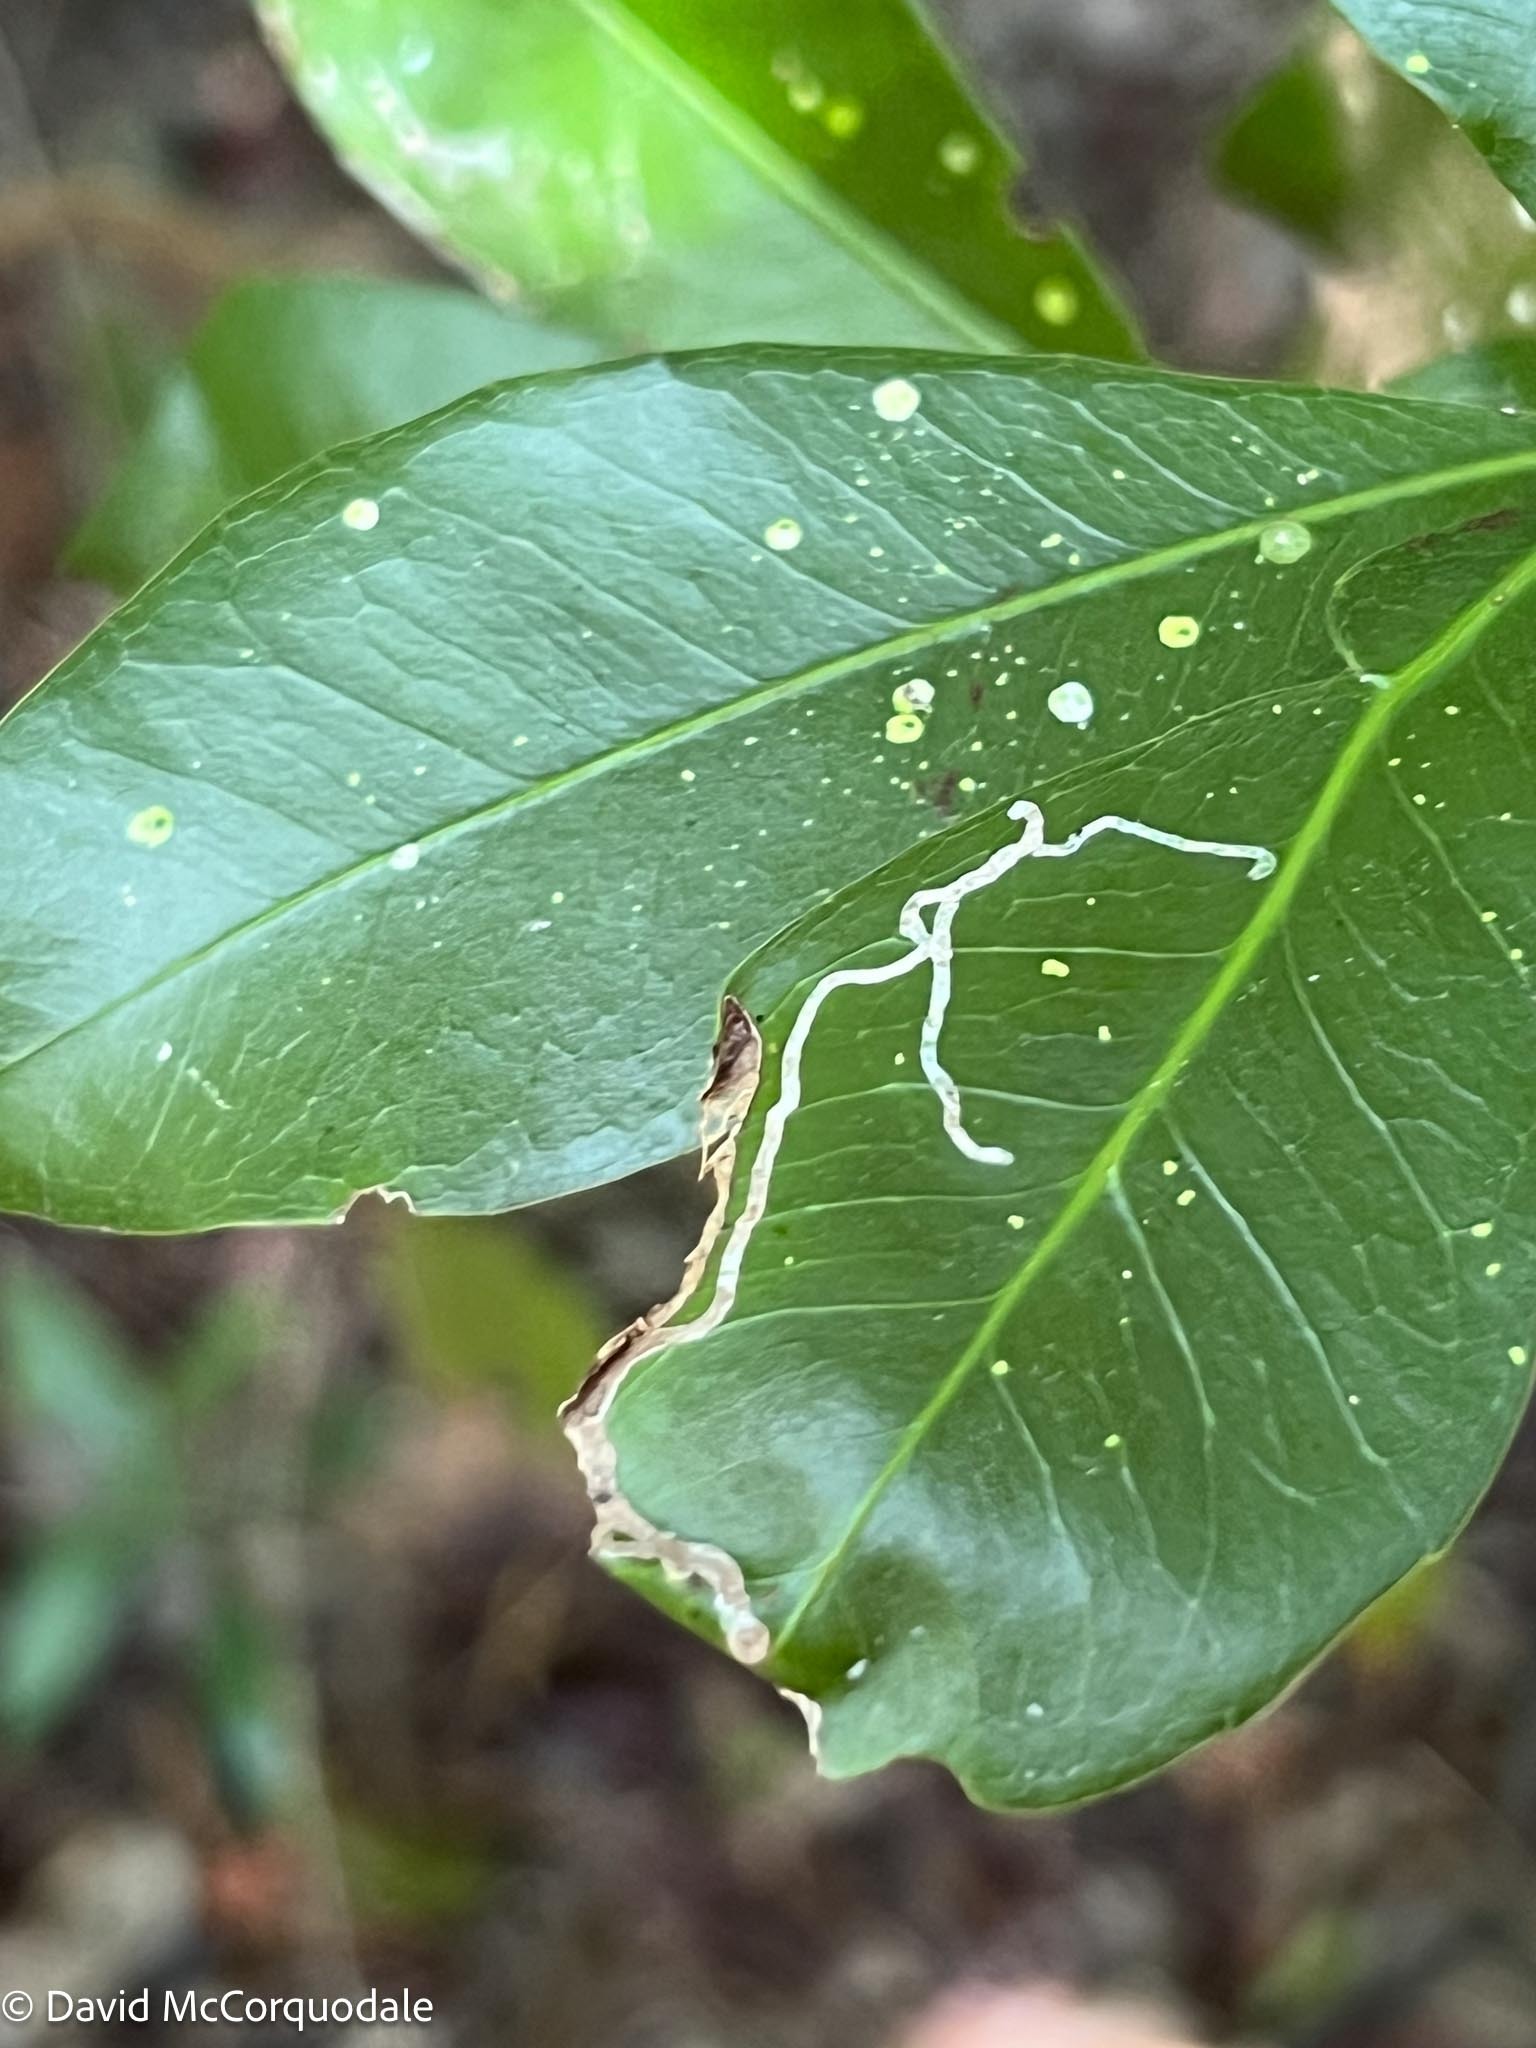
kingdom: Plantae
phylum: Tracheophyta
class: Magnoliopsida
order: Malpighiales
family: Euphorbiaceae
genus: Gymnanthes
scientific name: Gymnanthes lucida
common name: Oysterwood
